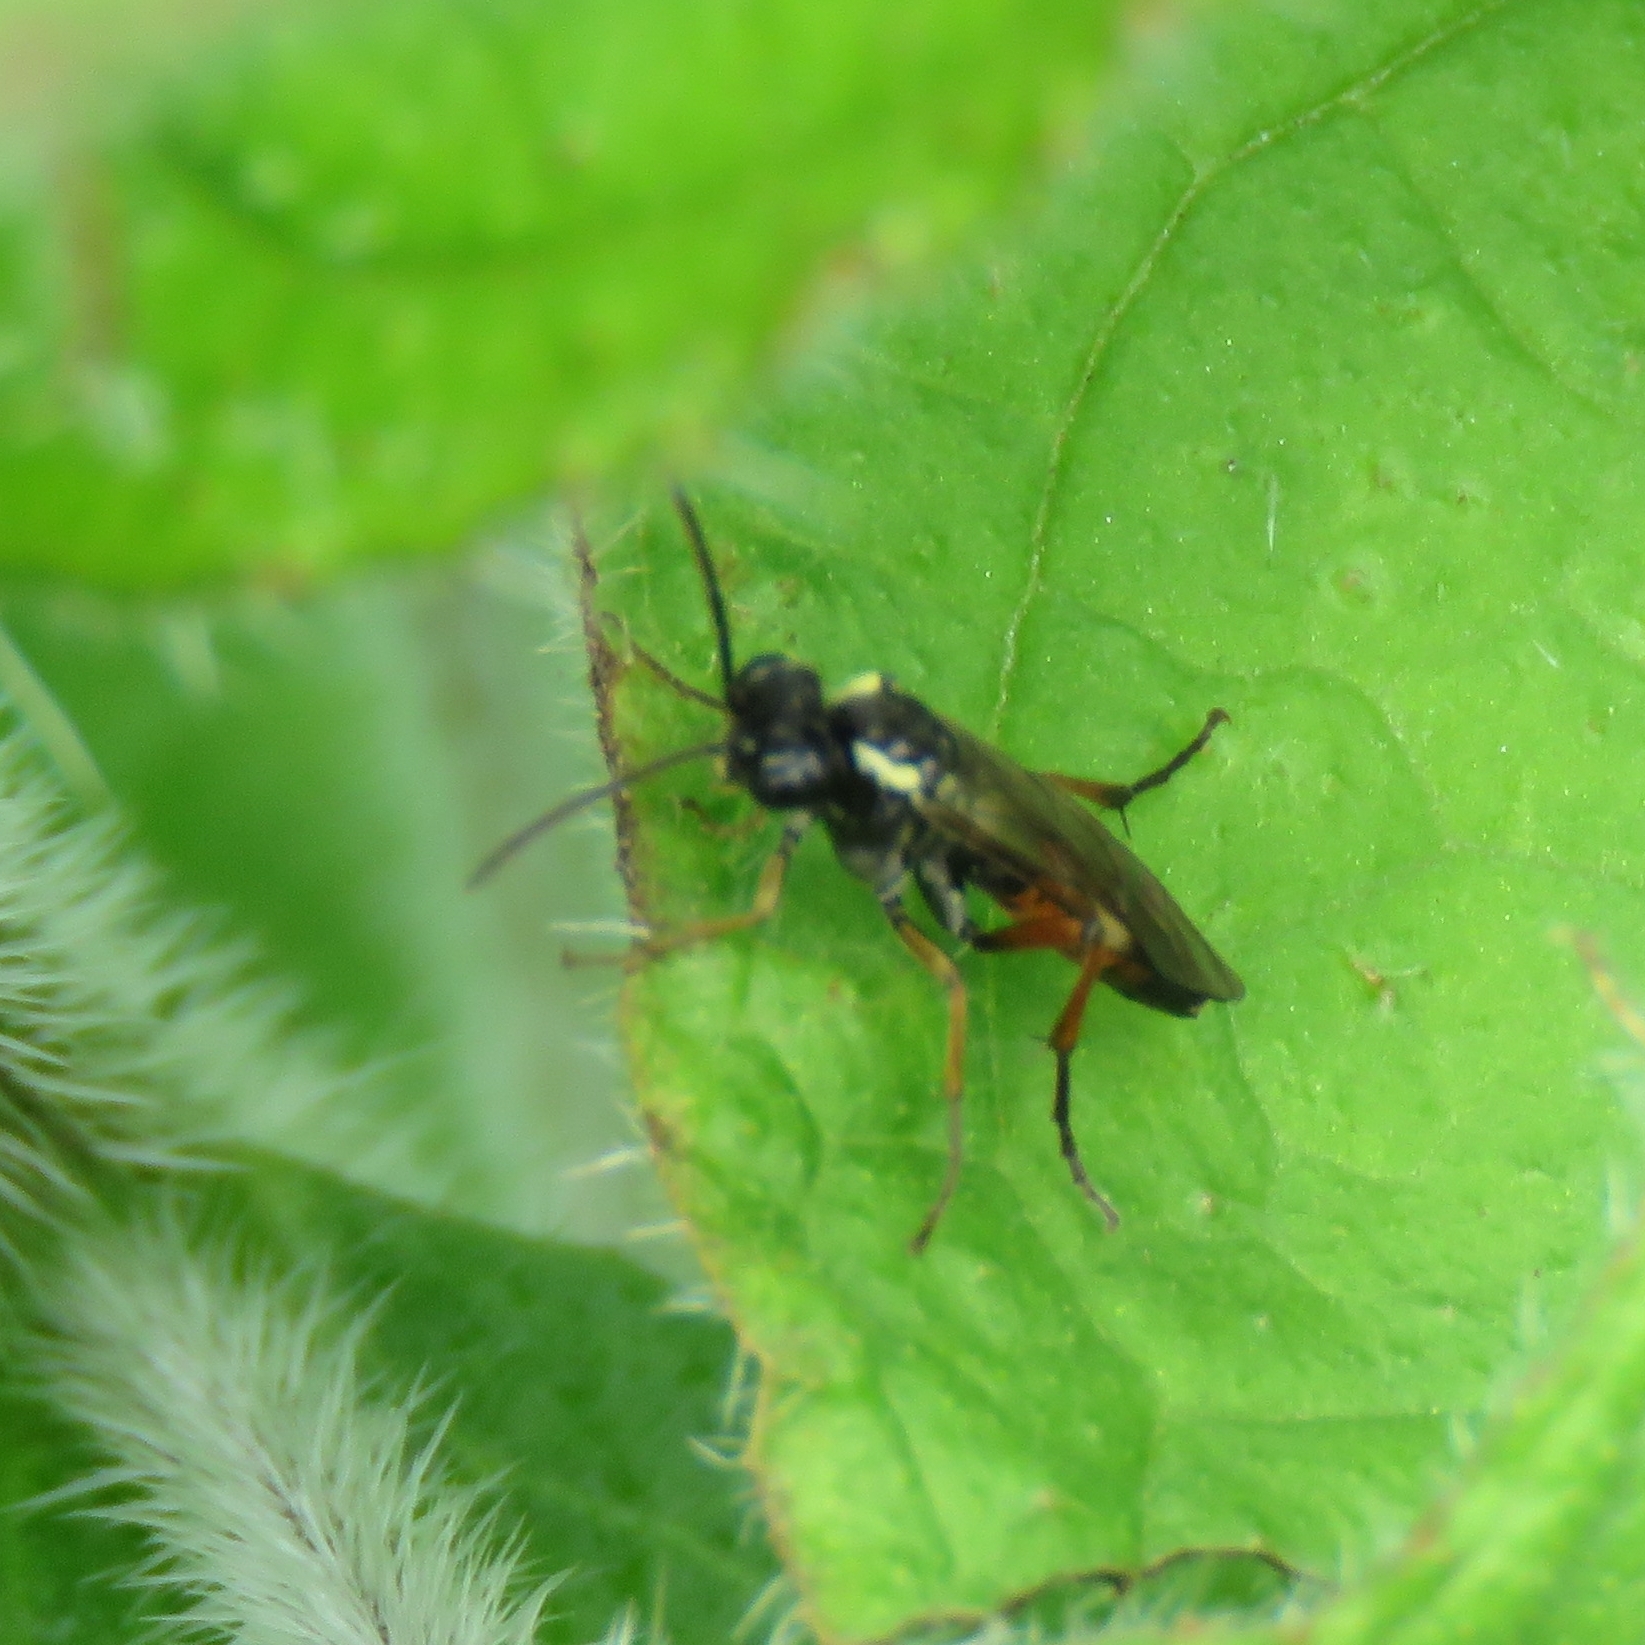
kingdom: Animalia
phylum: Arthropoda
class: Insecta
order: Hymenoptera
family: Tenthredinidae
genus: Aglaostigma
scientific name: Aglaostigma aucupariae
